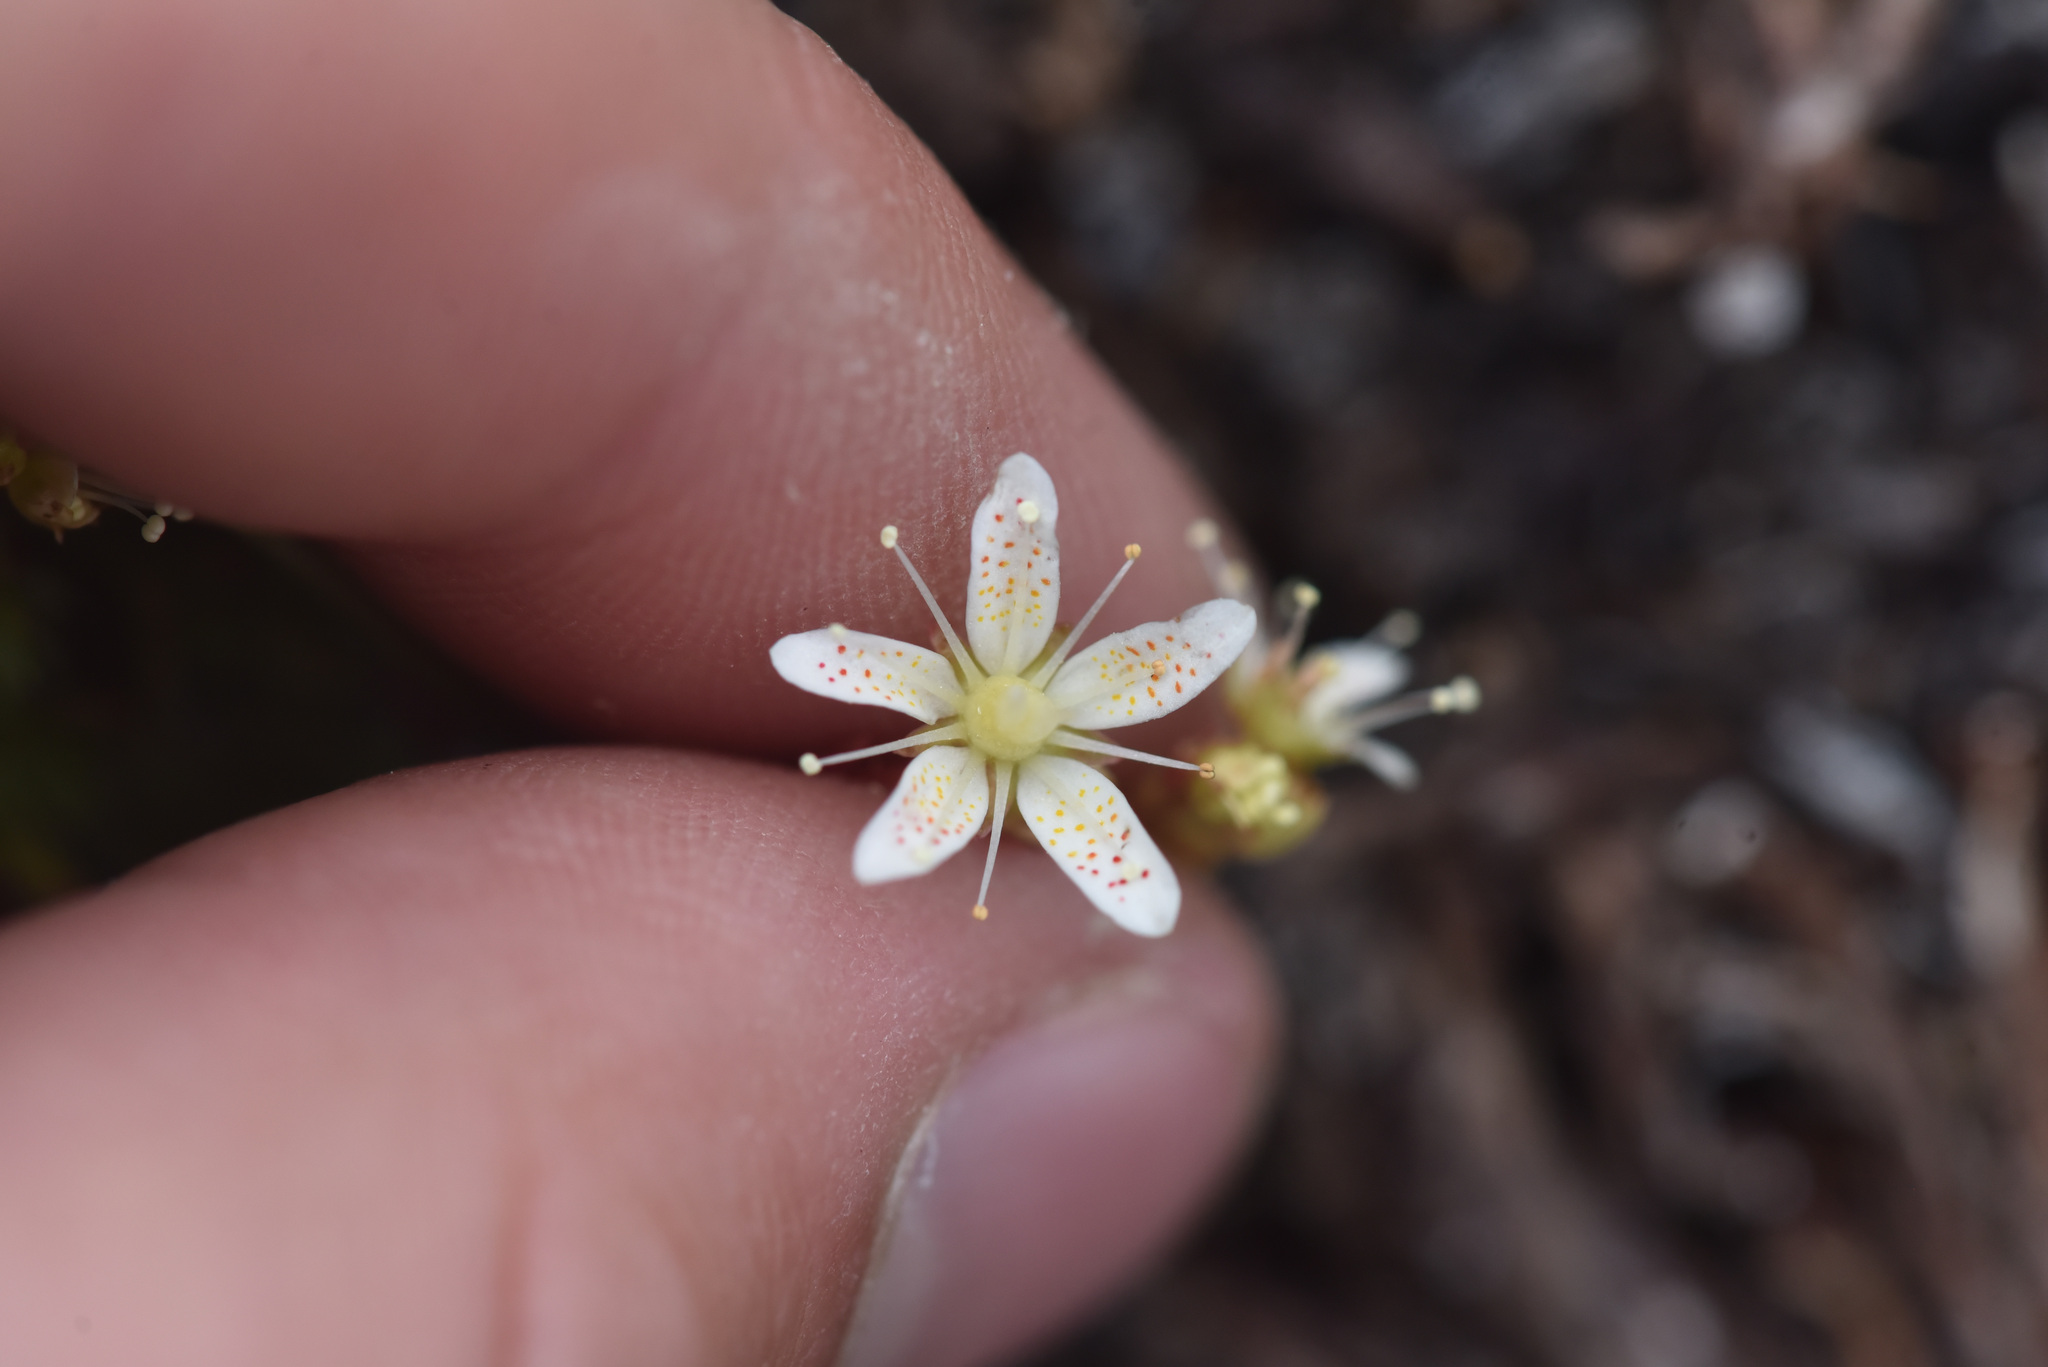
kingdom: Plantae
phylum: Tracheophyta
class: Magnoliopsida
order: Saxifragales
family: Saxifragaceae
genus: Saxifraga
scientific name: Saxifraga bronchialis
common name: Matted saxifrage
